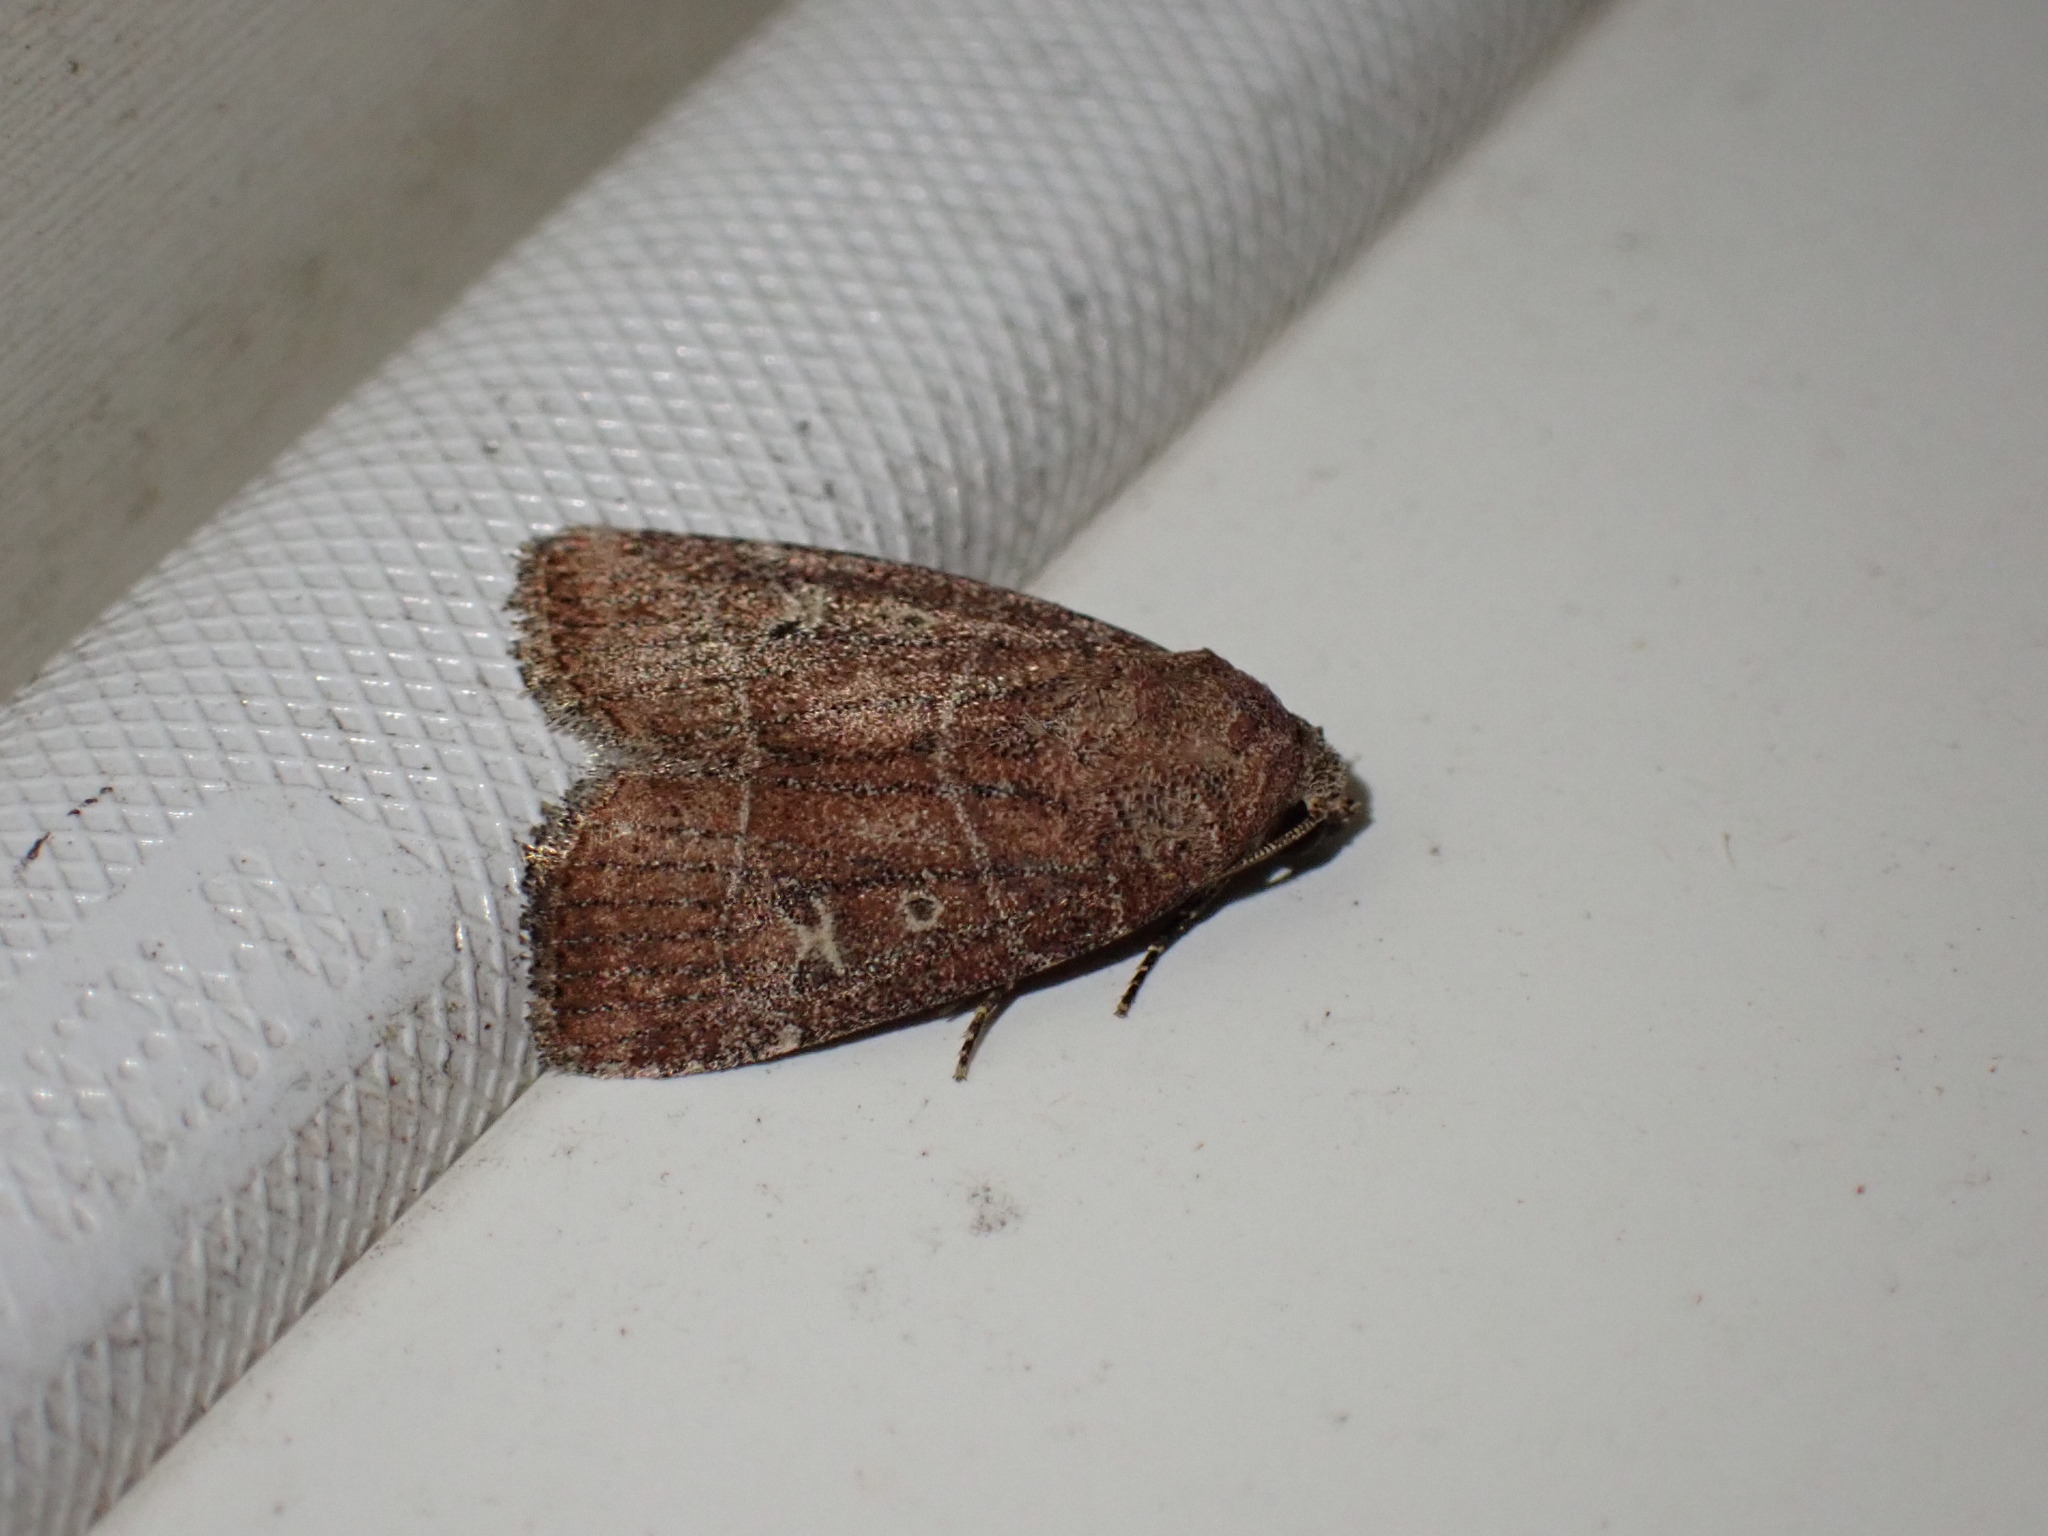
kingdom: Animalia
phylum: Arthropoda
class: Insecta
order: Lepidoptera
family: Noctuidae
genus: Elaphria
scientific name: Elaphria grata
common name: Grateful midget moth
